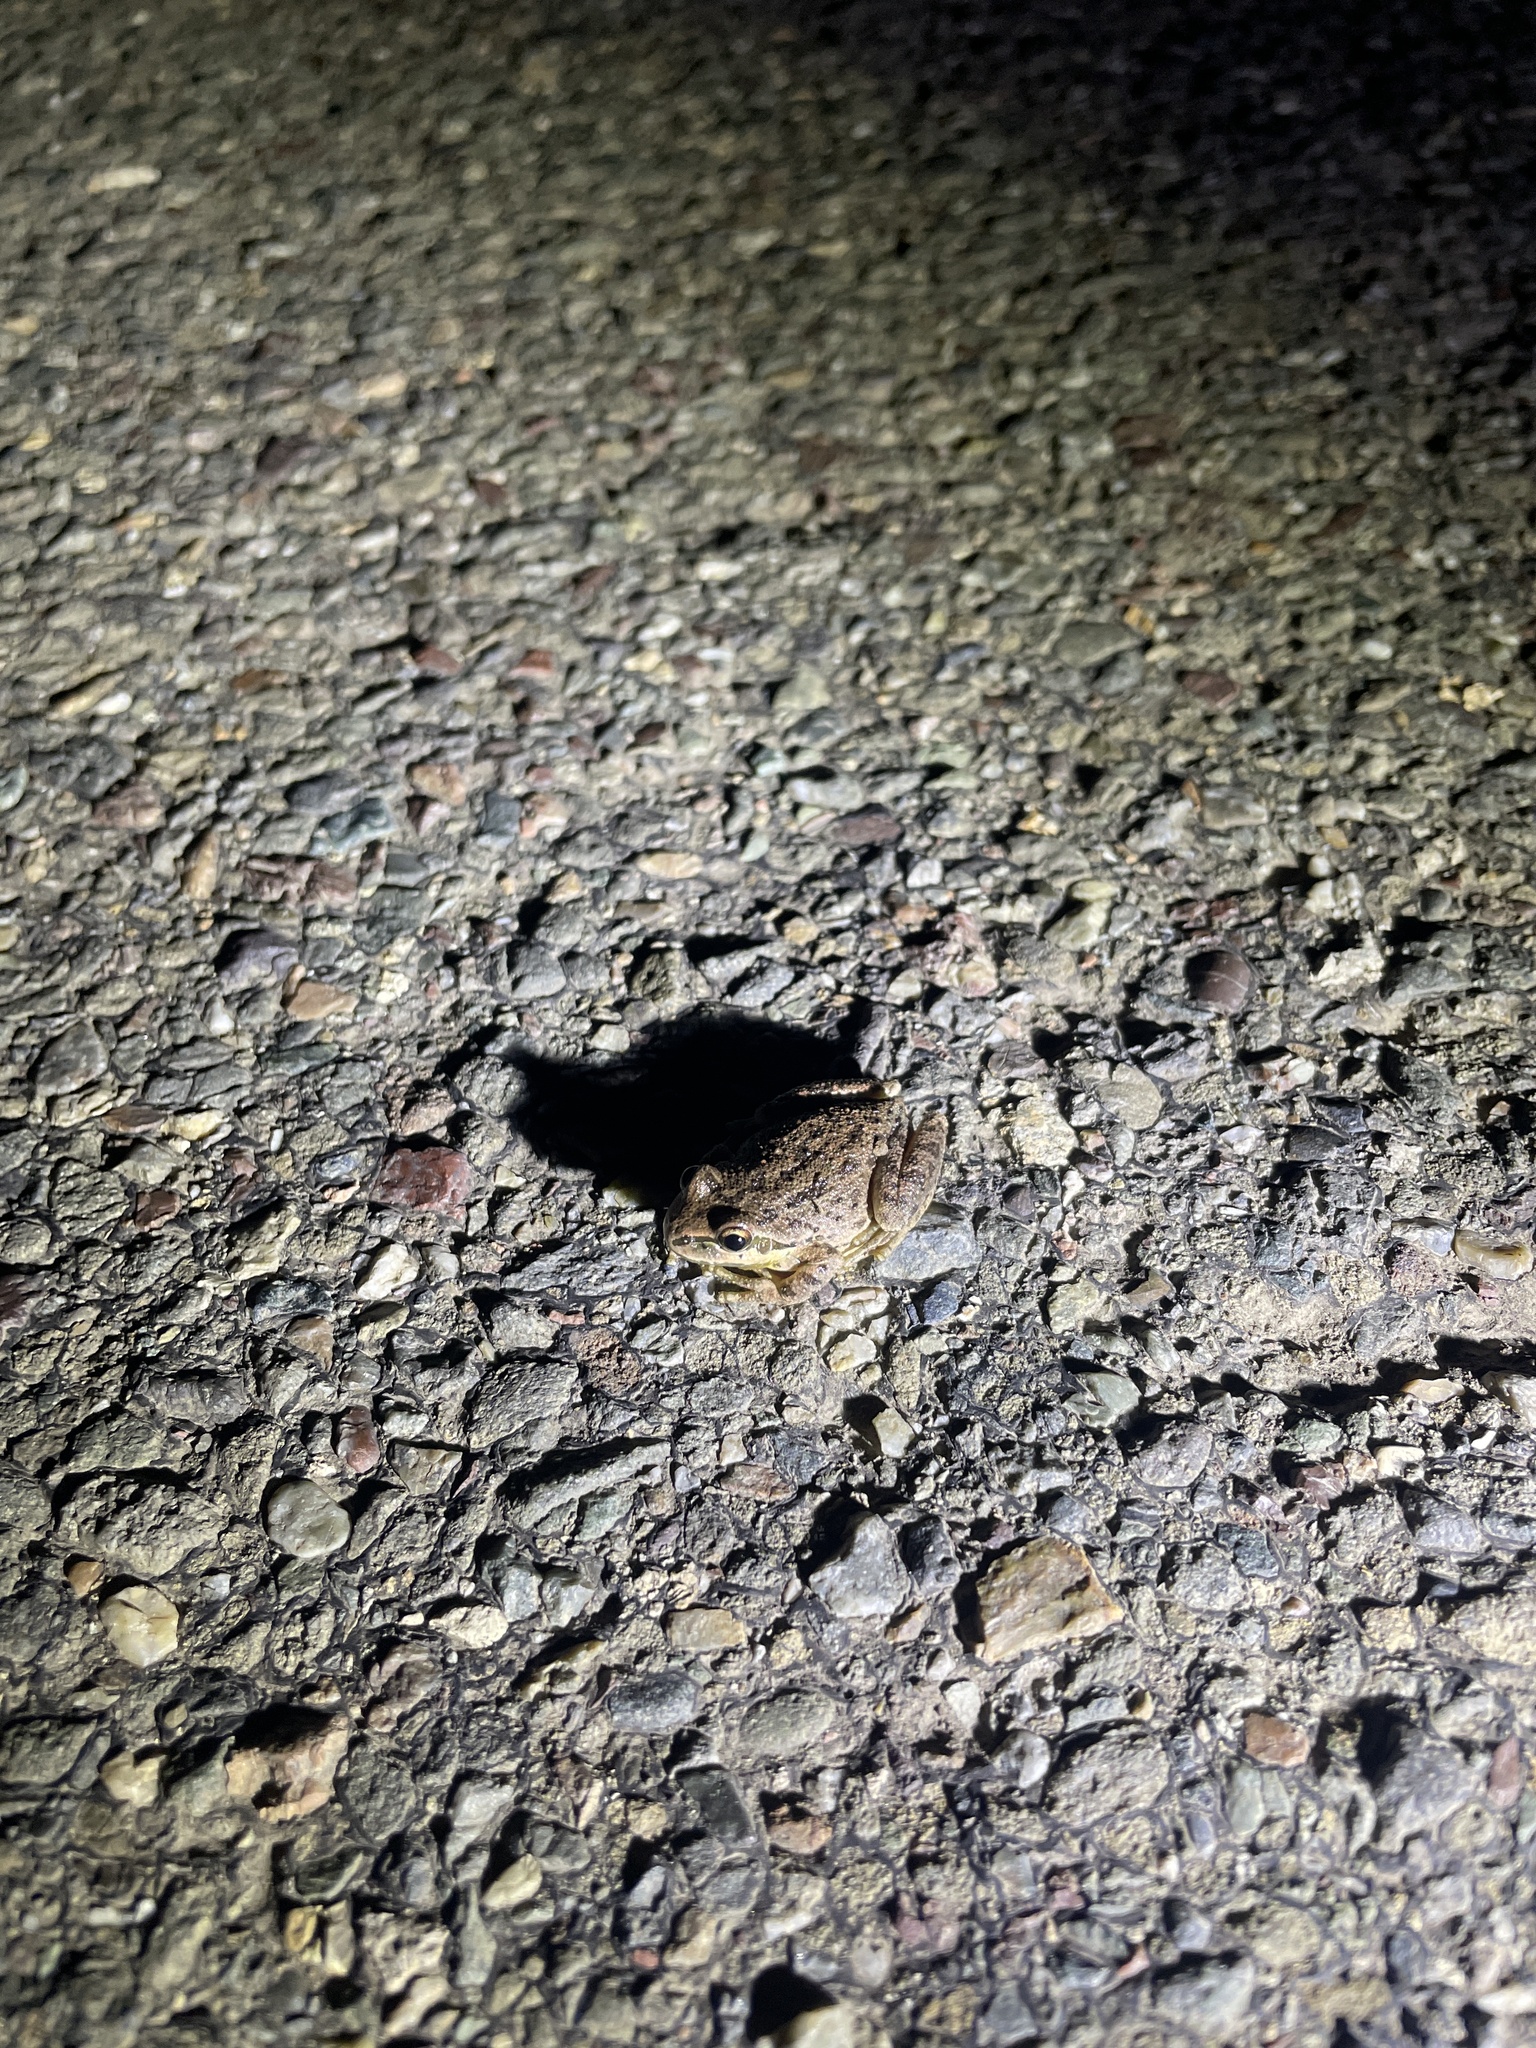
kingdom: Animalia
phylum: Chordata
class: Amphibia
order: Anura
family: Hylidae
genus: Pseudacris
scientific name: Pseudacris regilla
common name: Pacific chorus frog
